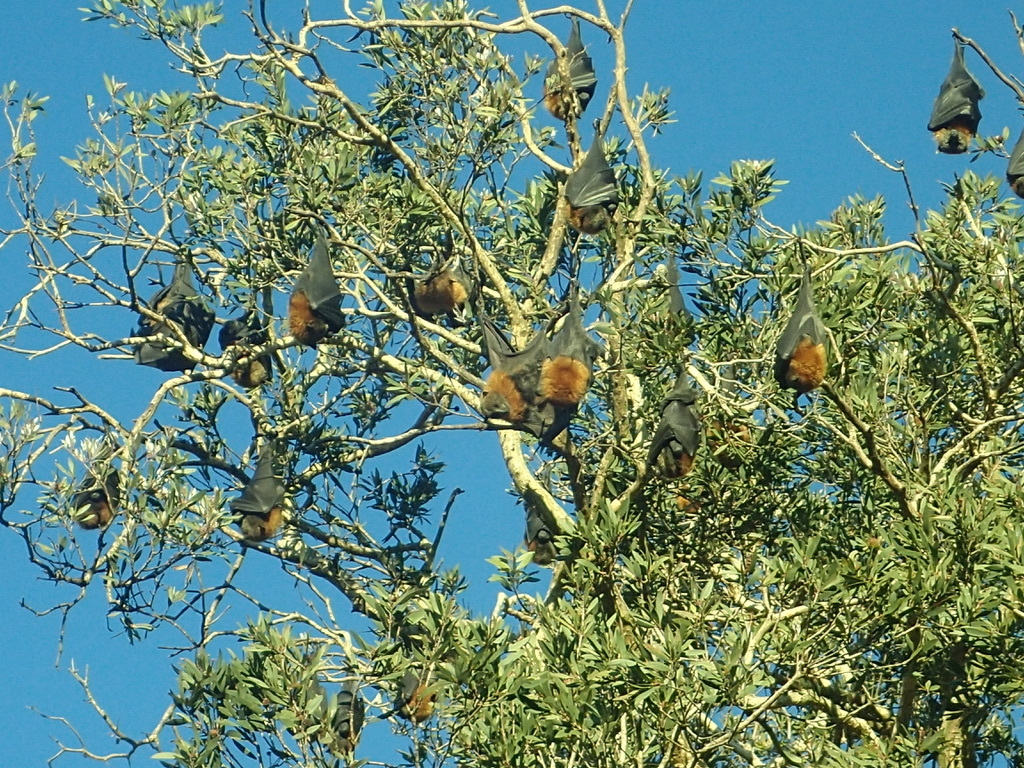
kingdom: Animalia
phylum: Chordata
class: Mammalia
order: Chiroptera
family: Pteropodidae
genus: Pteropus
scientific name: Pteropus poliocephalus
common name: Gray-headed flying fox
